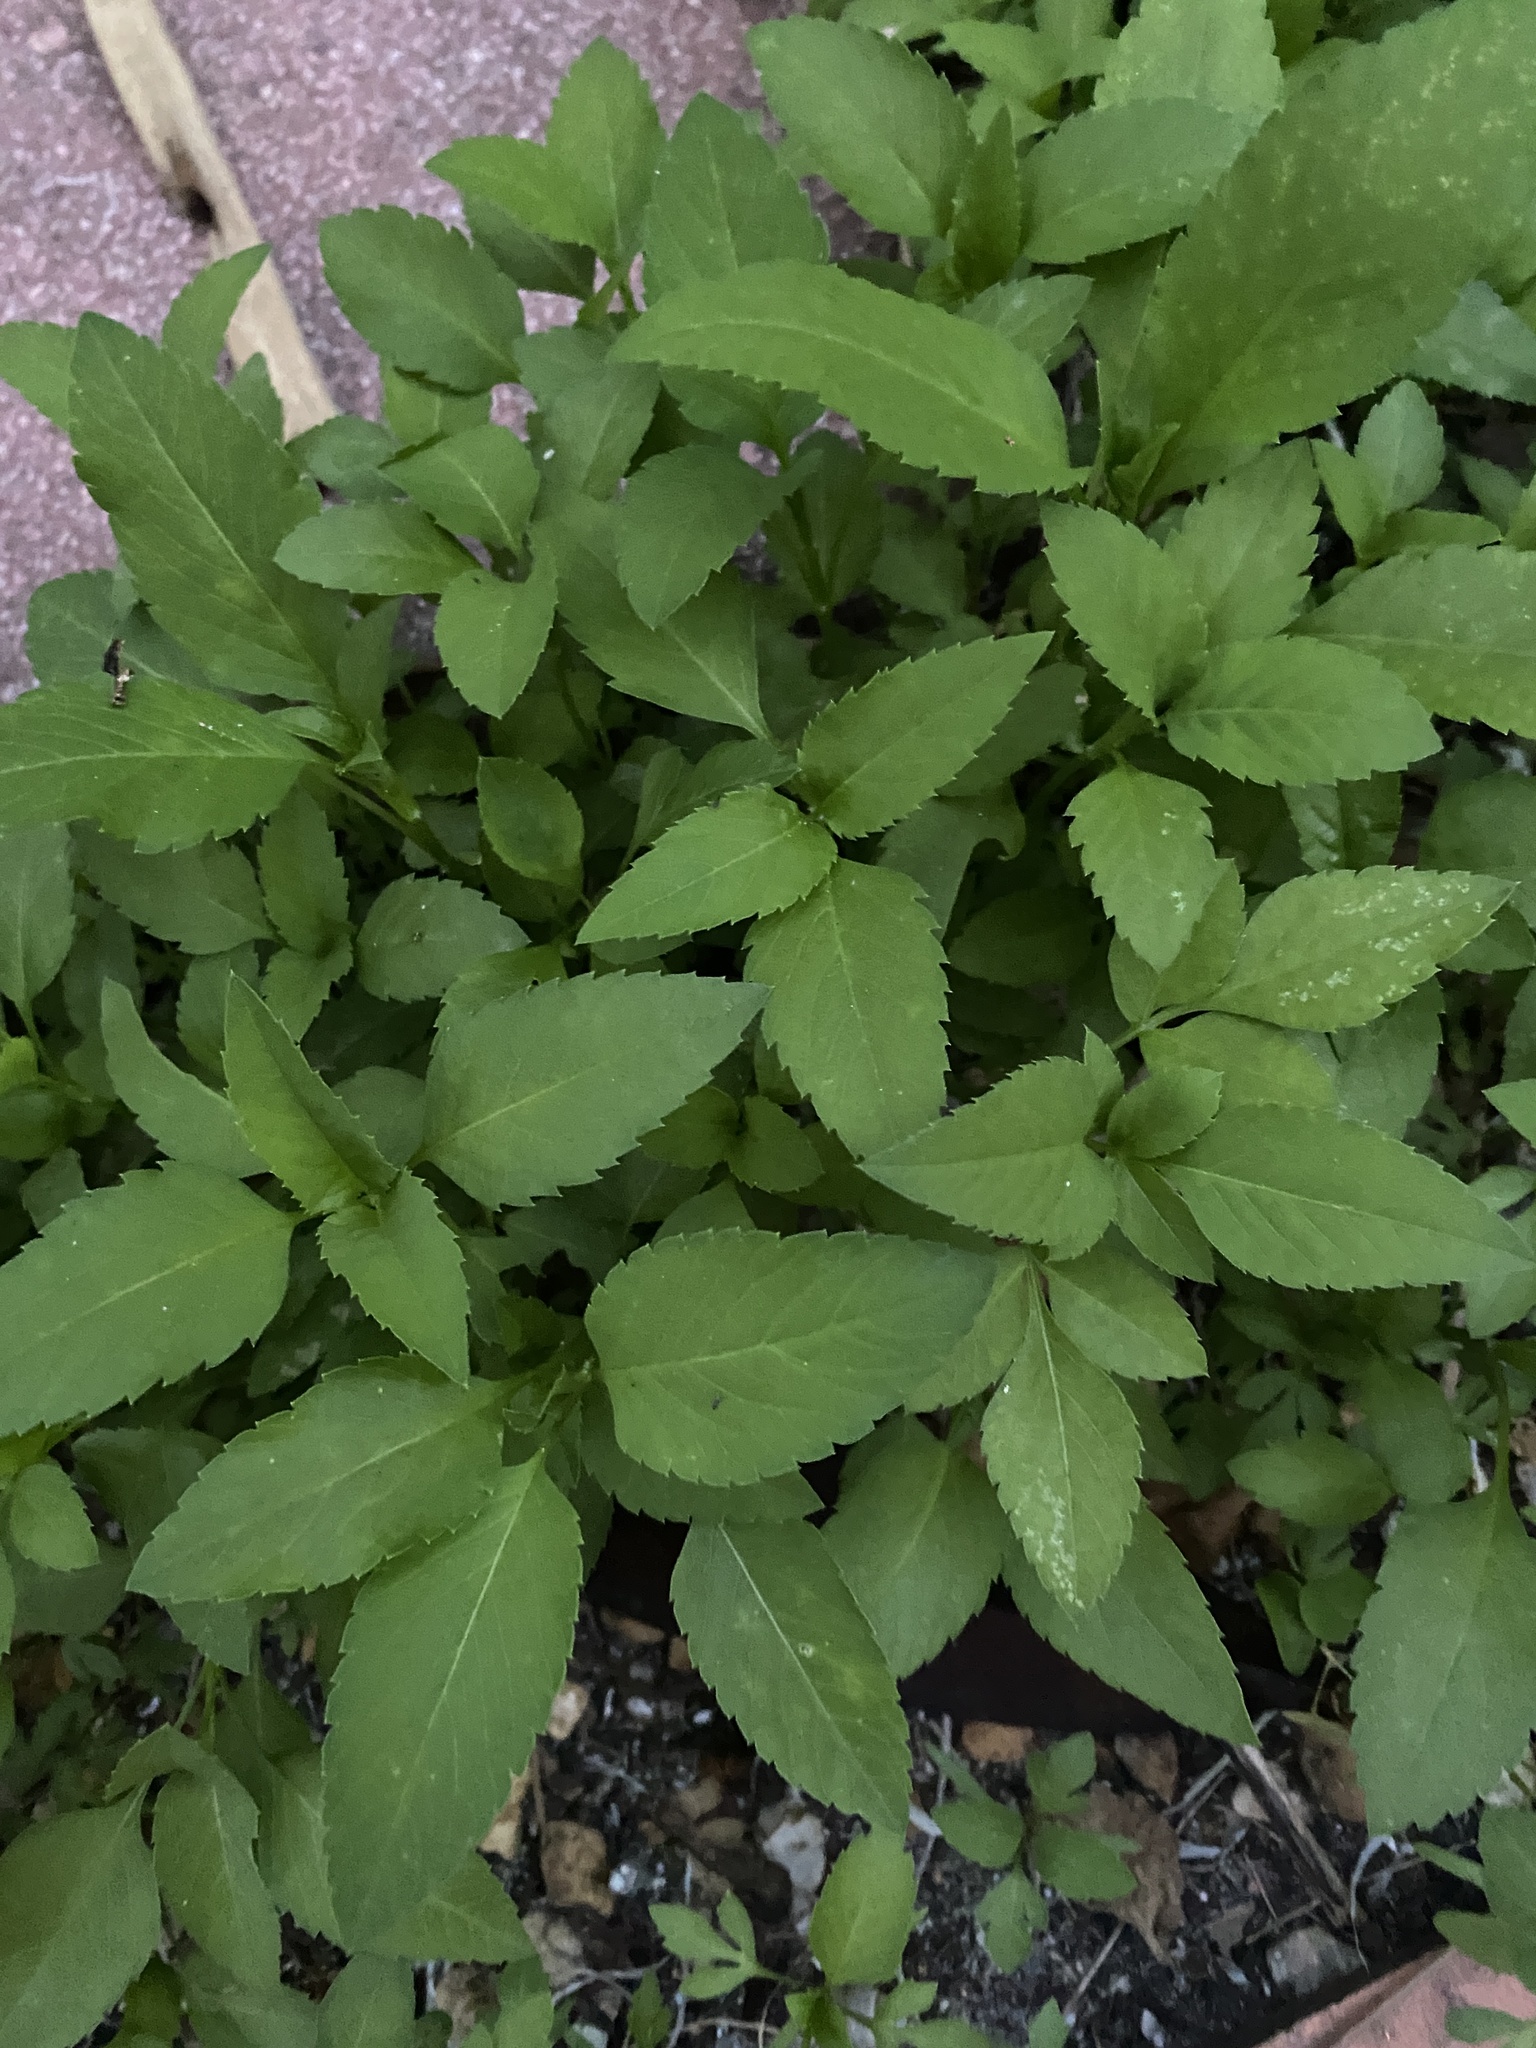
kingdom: Plantae
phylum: Tracheophyta
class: Magnoliopsida
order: Asterales
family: Asteraceae
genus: Bidens
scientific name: Bidens alba
